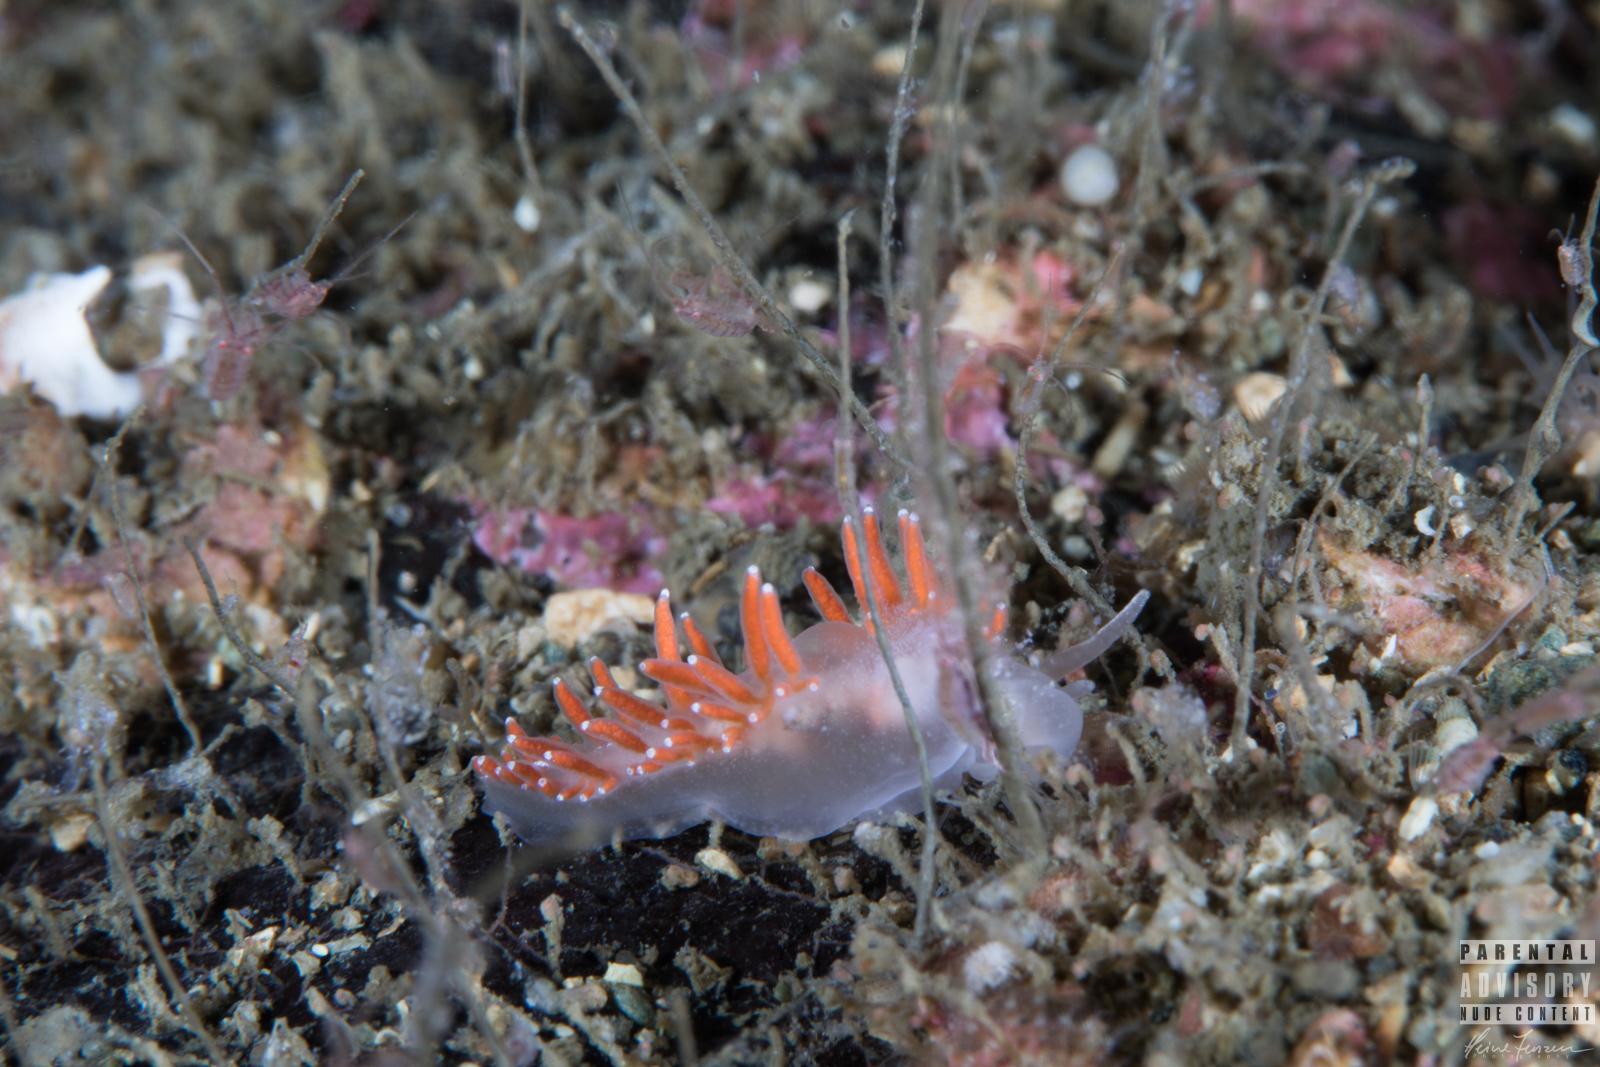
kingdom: Animalia
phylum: Mollusca
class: Gastropoda
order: Nudibranchia
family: Coryphellidae
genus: Coryphella
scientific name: Coryphella gracilis
